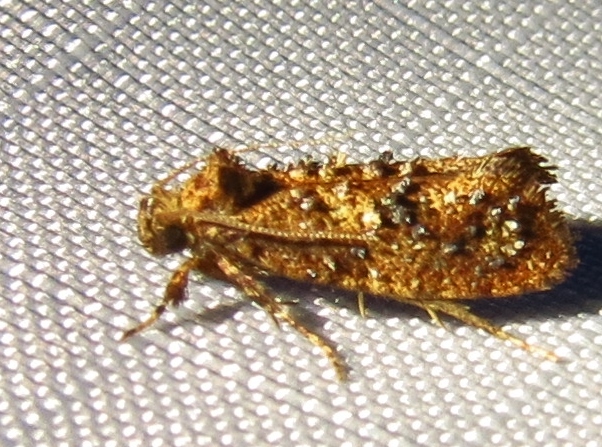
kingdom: Animalia
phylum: Arthropoda
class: Insecta
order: Lepidoptera
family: Tineidae
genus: Acrolophus
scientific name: Acrolophus cressoni
